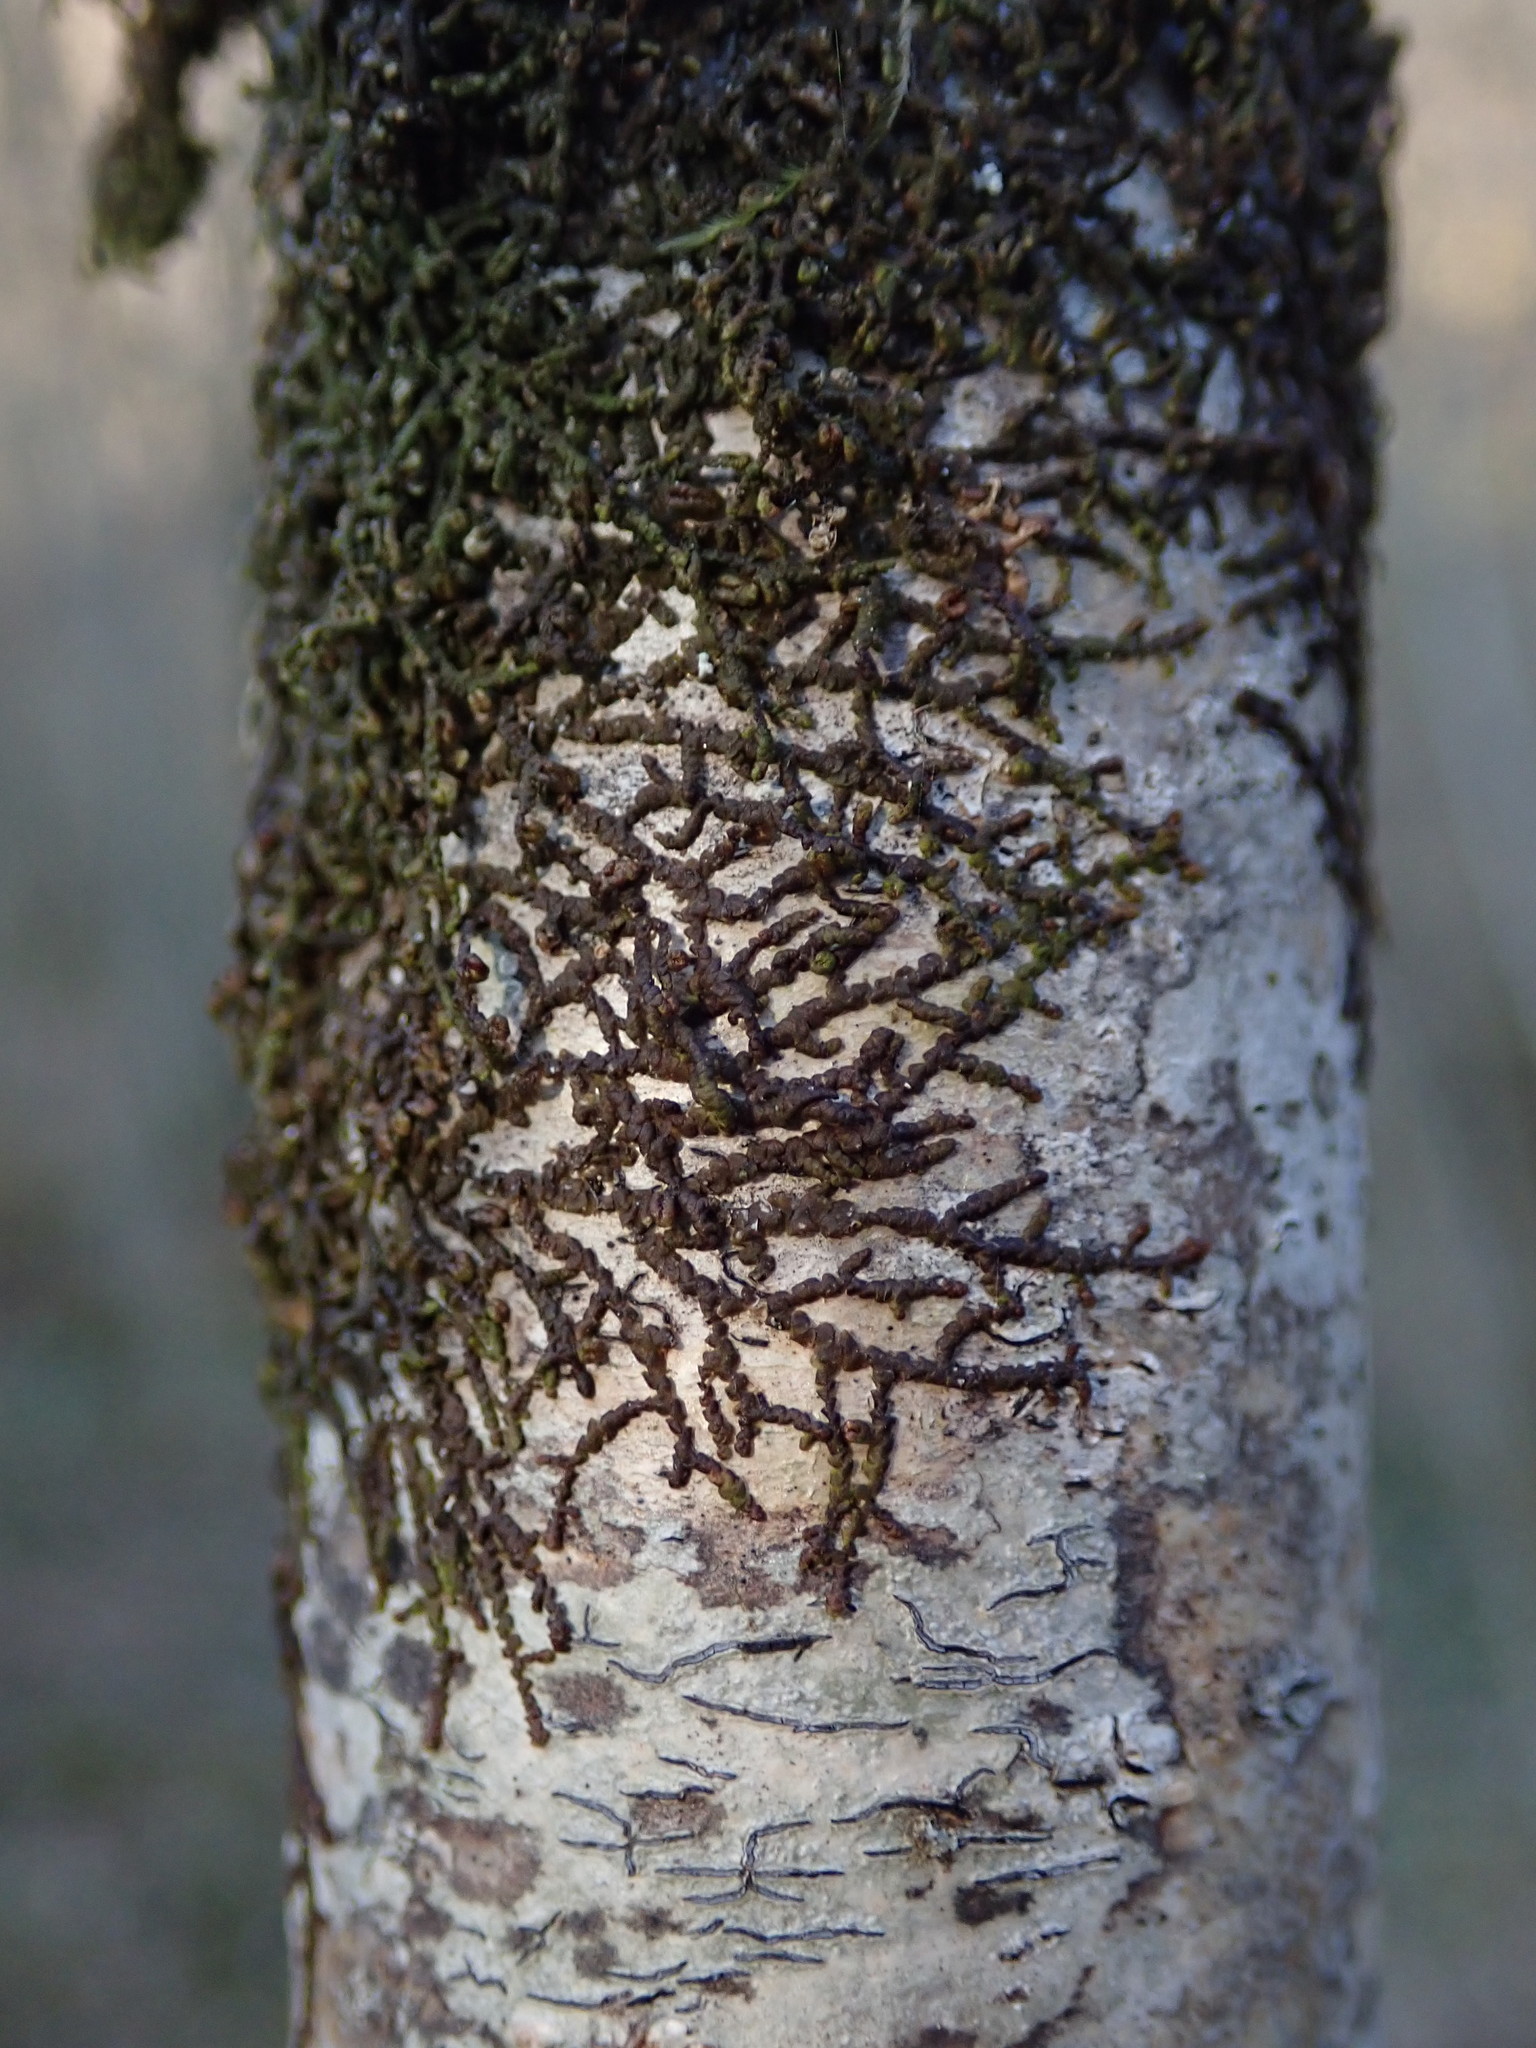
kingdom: Plantae
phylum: Marchantiophyta
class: Jungermanniopsida
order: Porellales
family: Frullaniaceae
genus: Frullania
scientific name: Frullania dilatata
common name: Dilated scalewort
